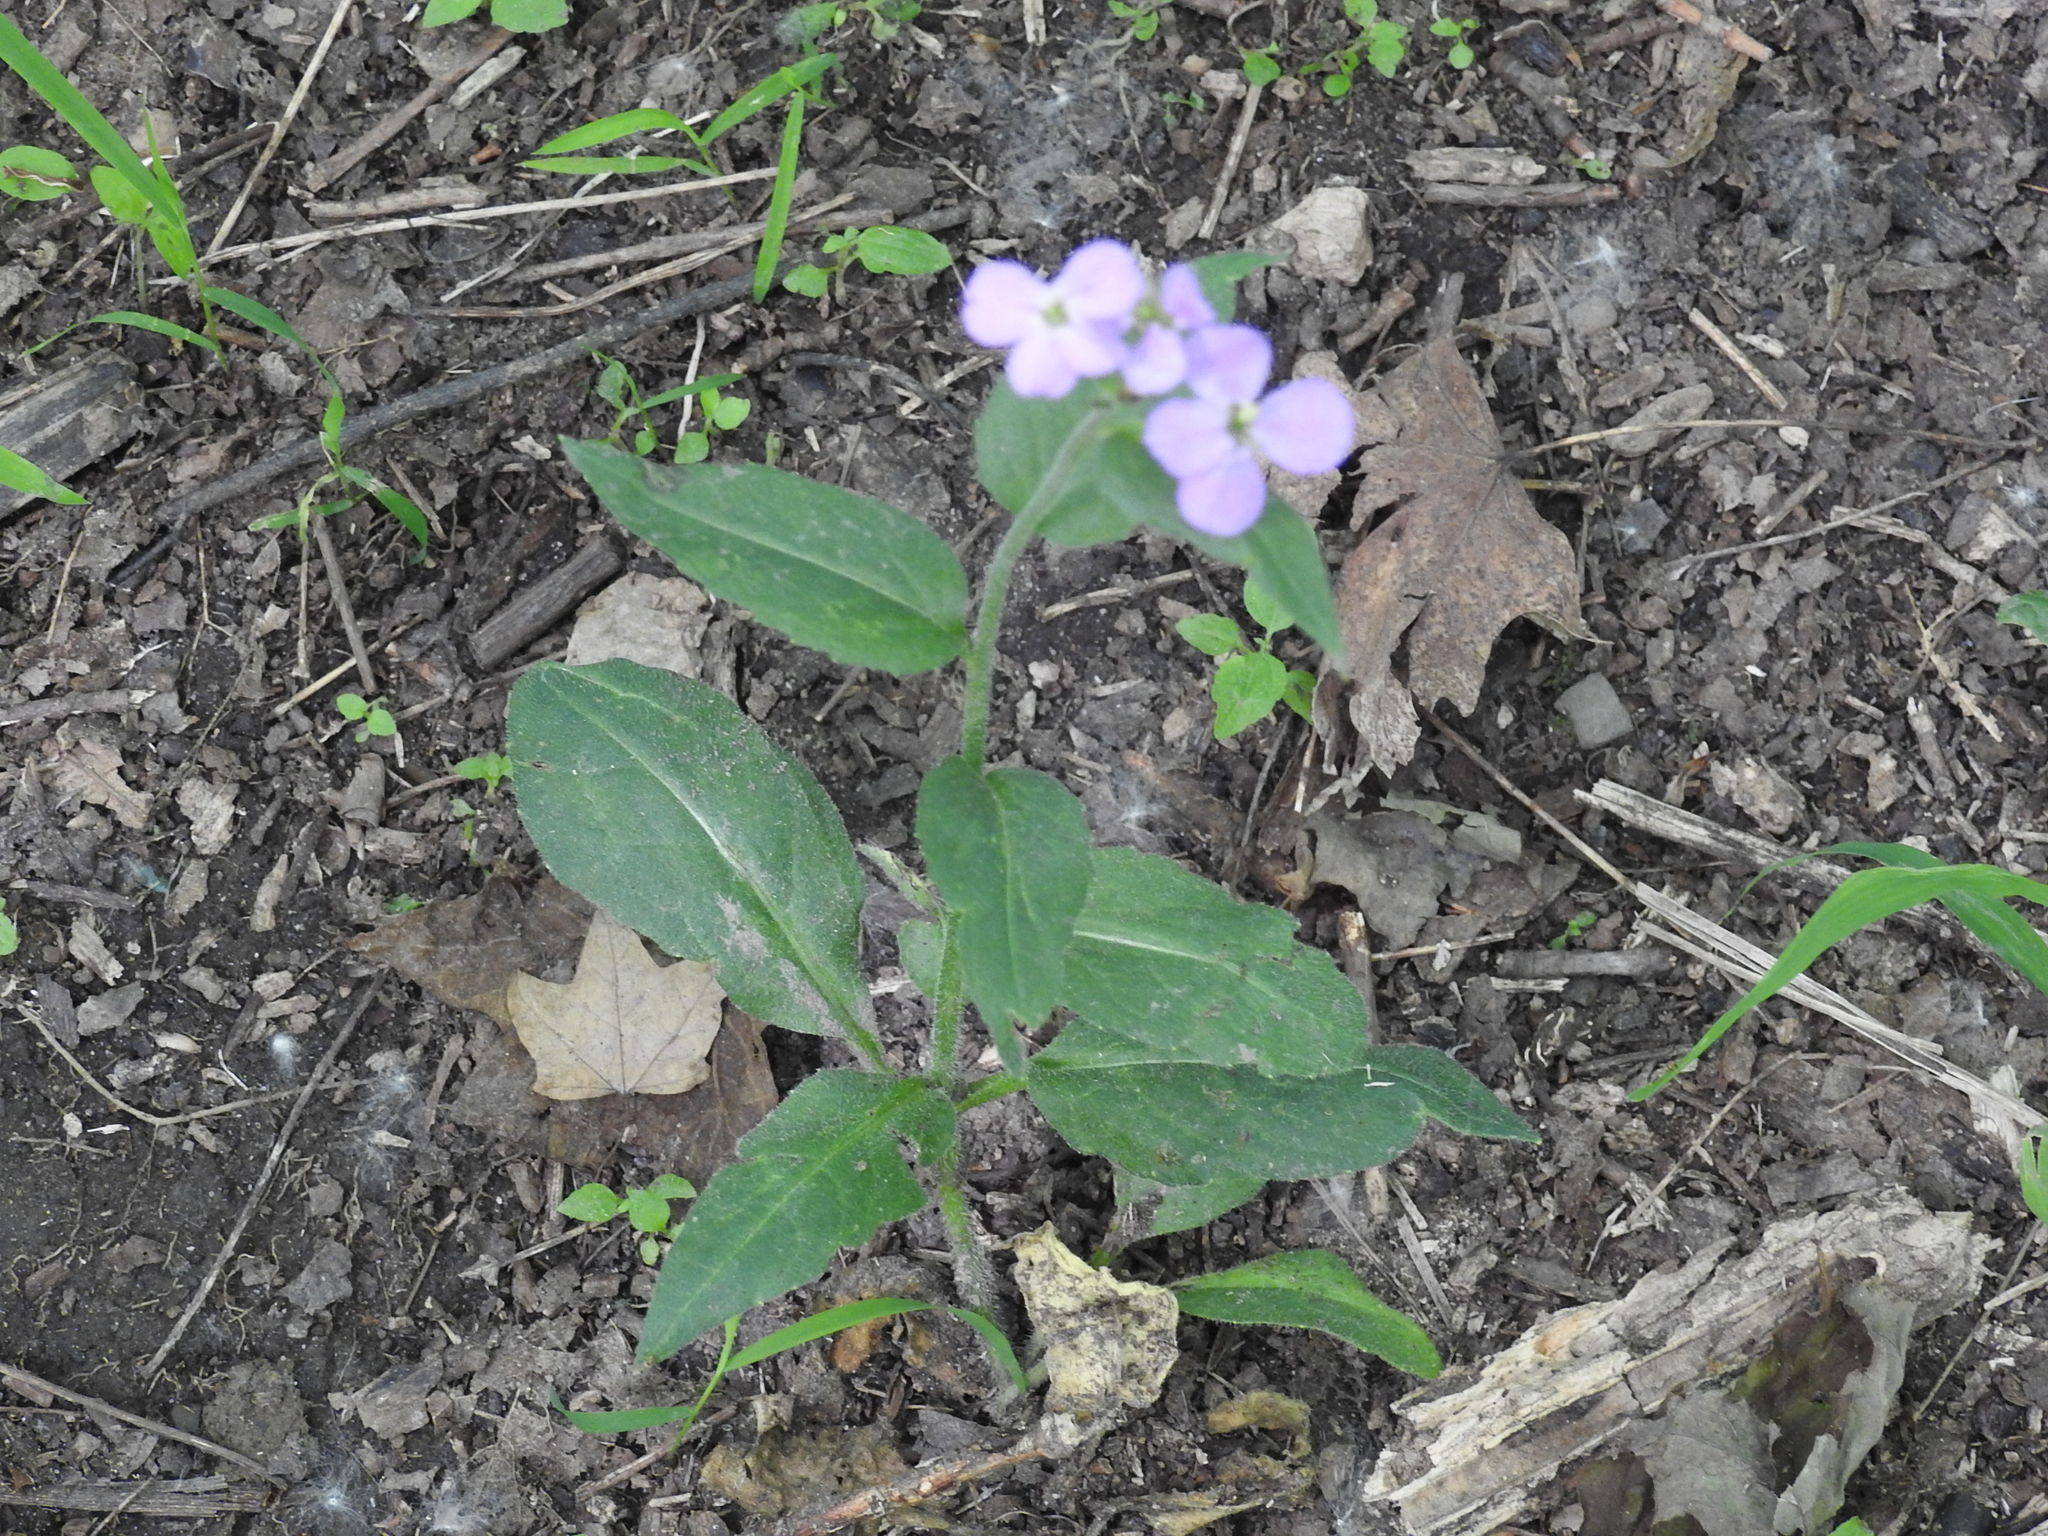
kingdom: Plantae
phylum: Tracheophyta
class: Magnoliopsida
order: Brassicales
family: Brassicaceae
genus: Hesperis
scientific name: Hesperis matronalis
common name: Dame's-violet
